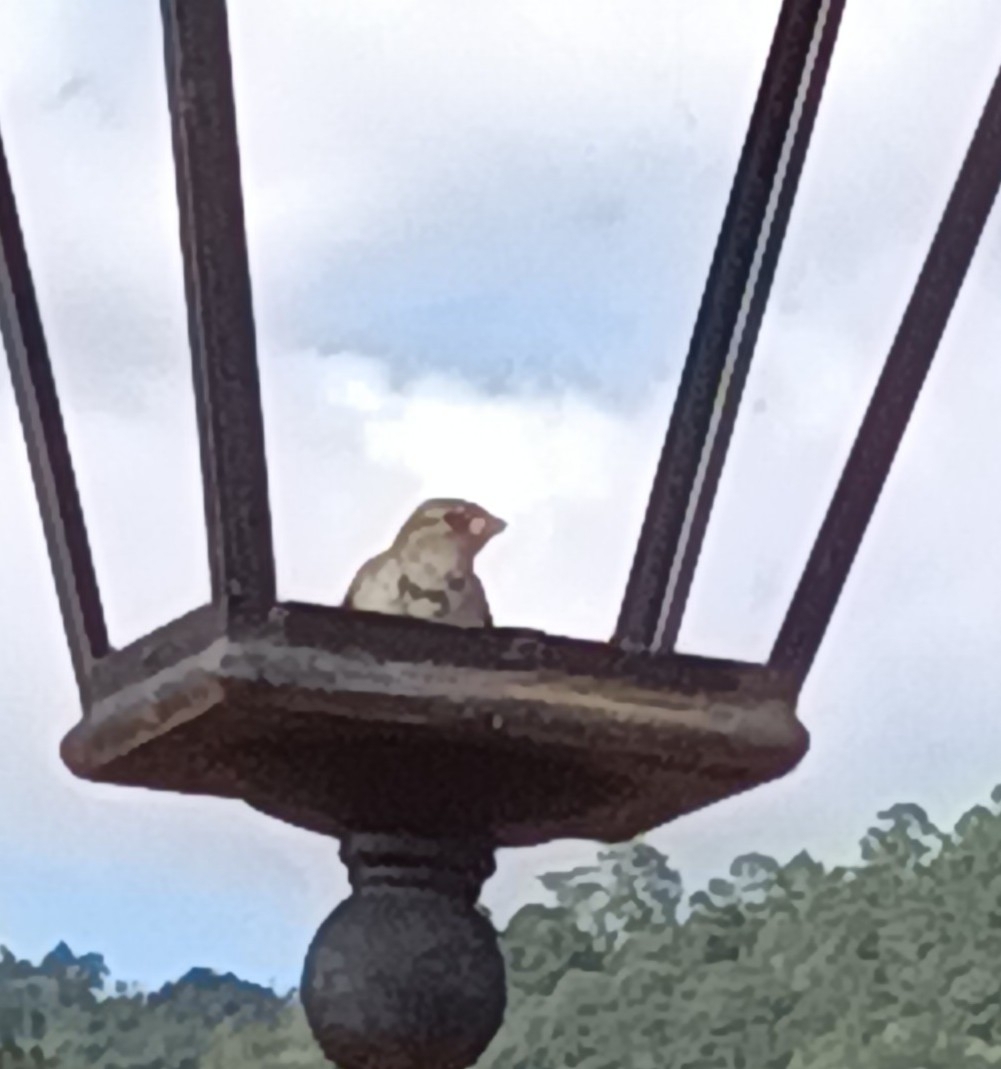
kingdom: Animalia
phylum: Chordata
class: Aves
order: Passeriformes
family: Passeridae
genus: Passer
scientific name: Passer domesticus
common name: House sparrow
